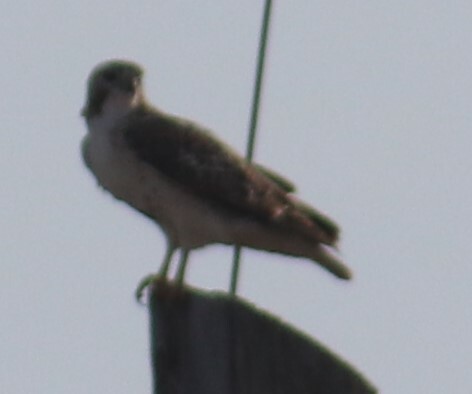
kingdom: Animalia
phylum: Chordata
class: Aves
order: Accipitriformes
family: Accipitridae
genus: Buteo
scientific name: Buteo jamaicensis
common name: Red-tailed hawk
